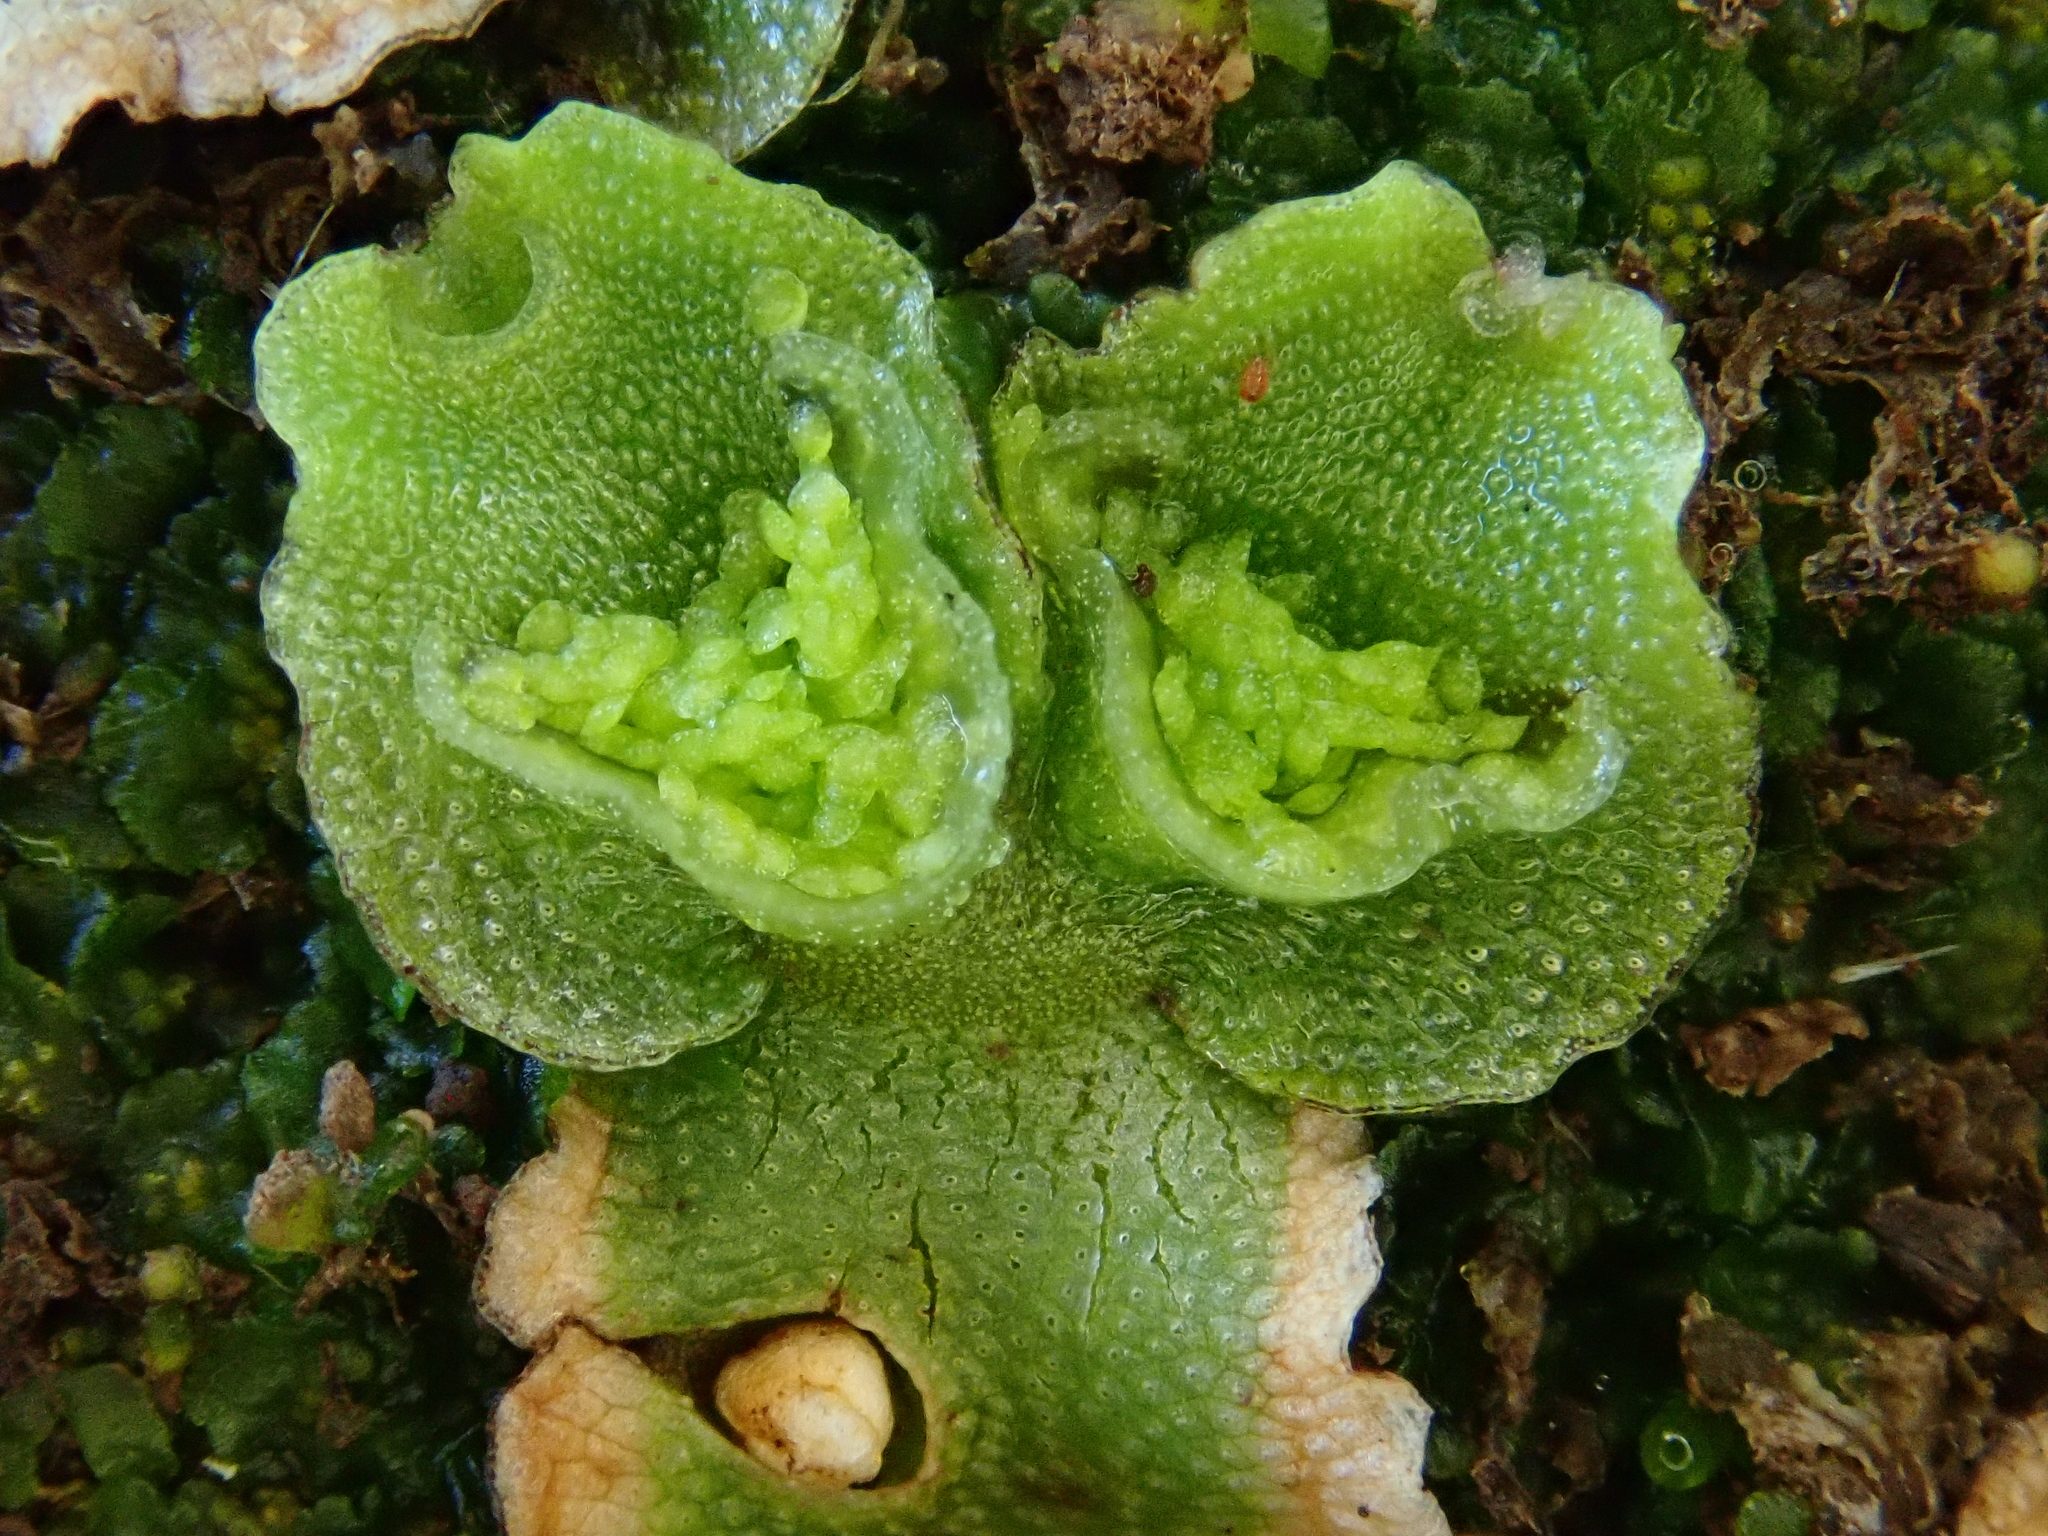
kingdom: Plantae
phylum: Marchantiophyta
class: Marchantiopsida
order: Lunulariales
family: Lunulariaceae
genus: Lunularia
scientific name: Lunularia cruciata
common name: Crescent-cup liverwort
